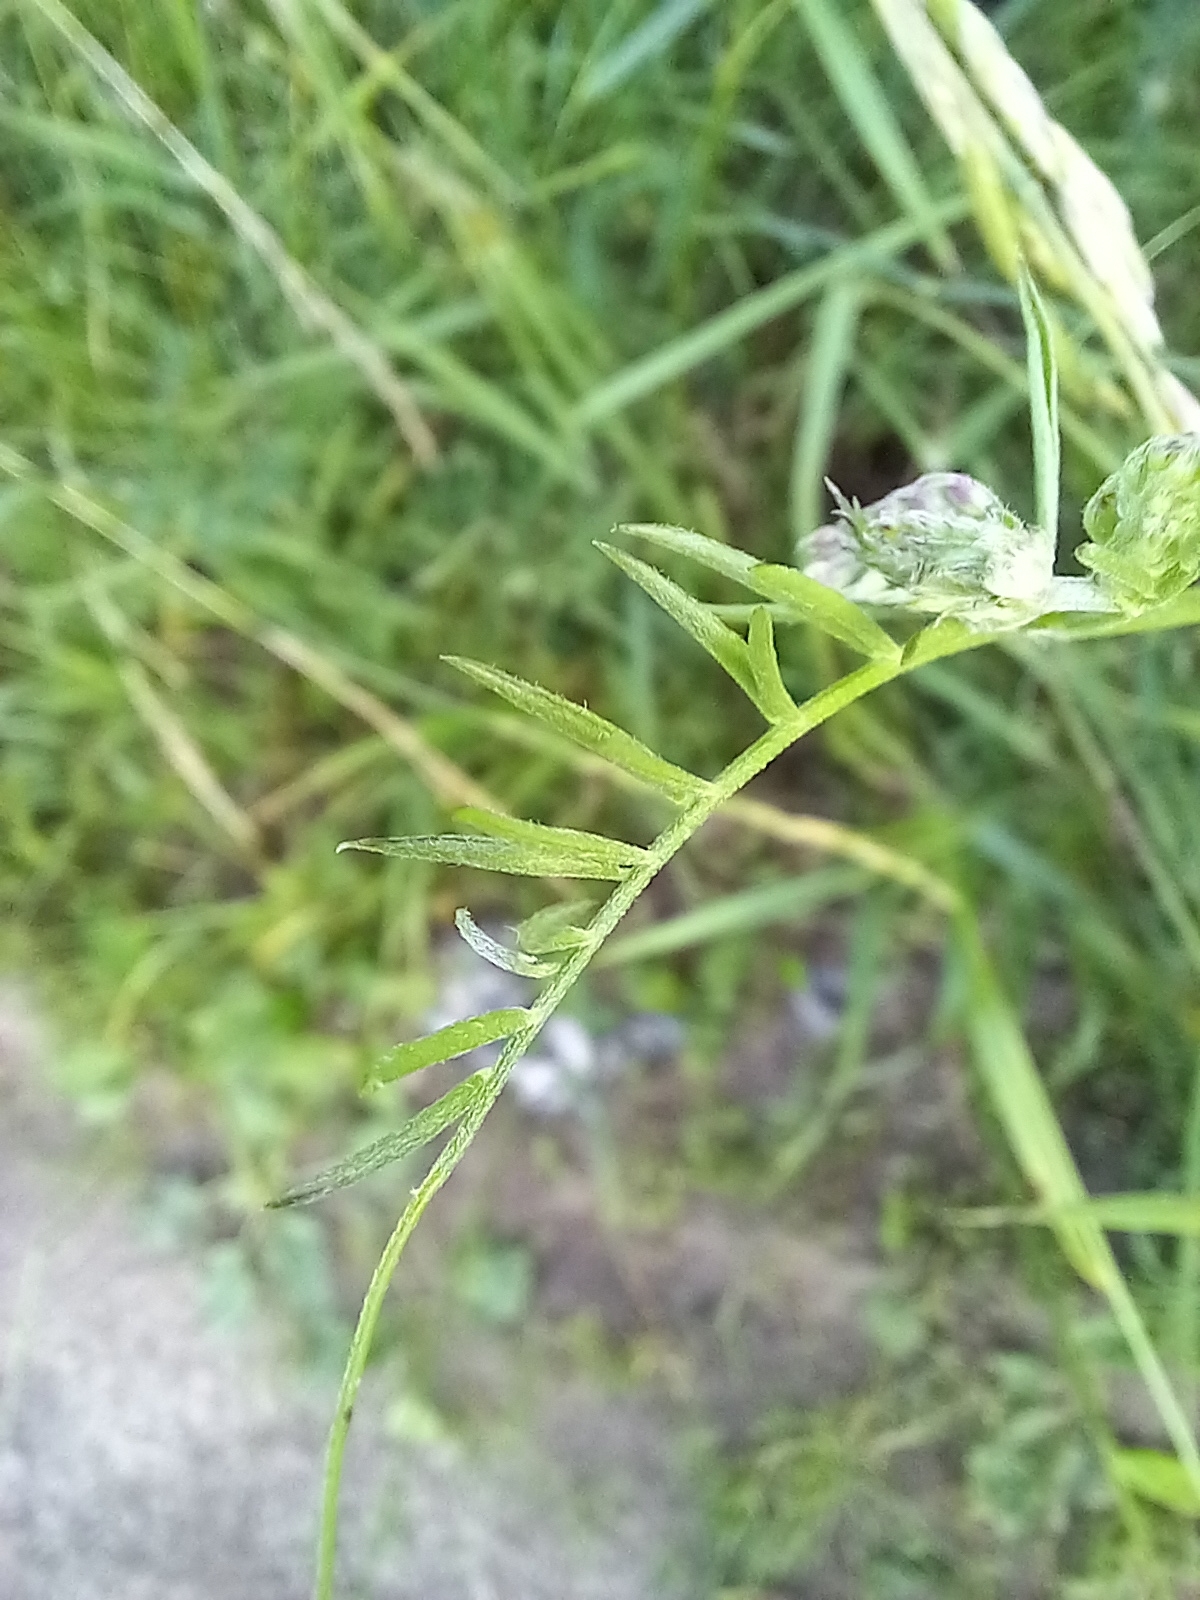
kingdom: Plantae
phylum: Tracheophyta
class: Magnoliopsida
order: Fabales
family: Fabaceae
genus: Vicia
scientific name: Vicia cracca
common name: Bird vetch
